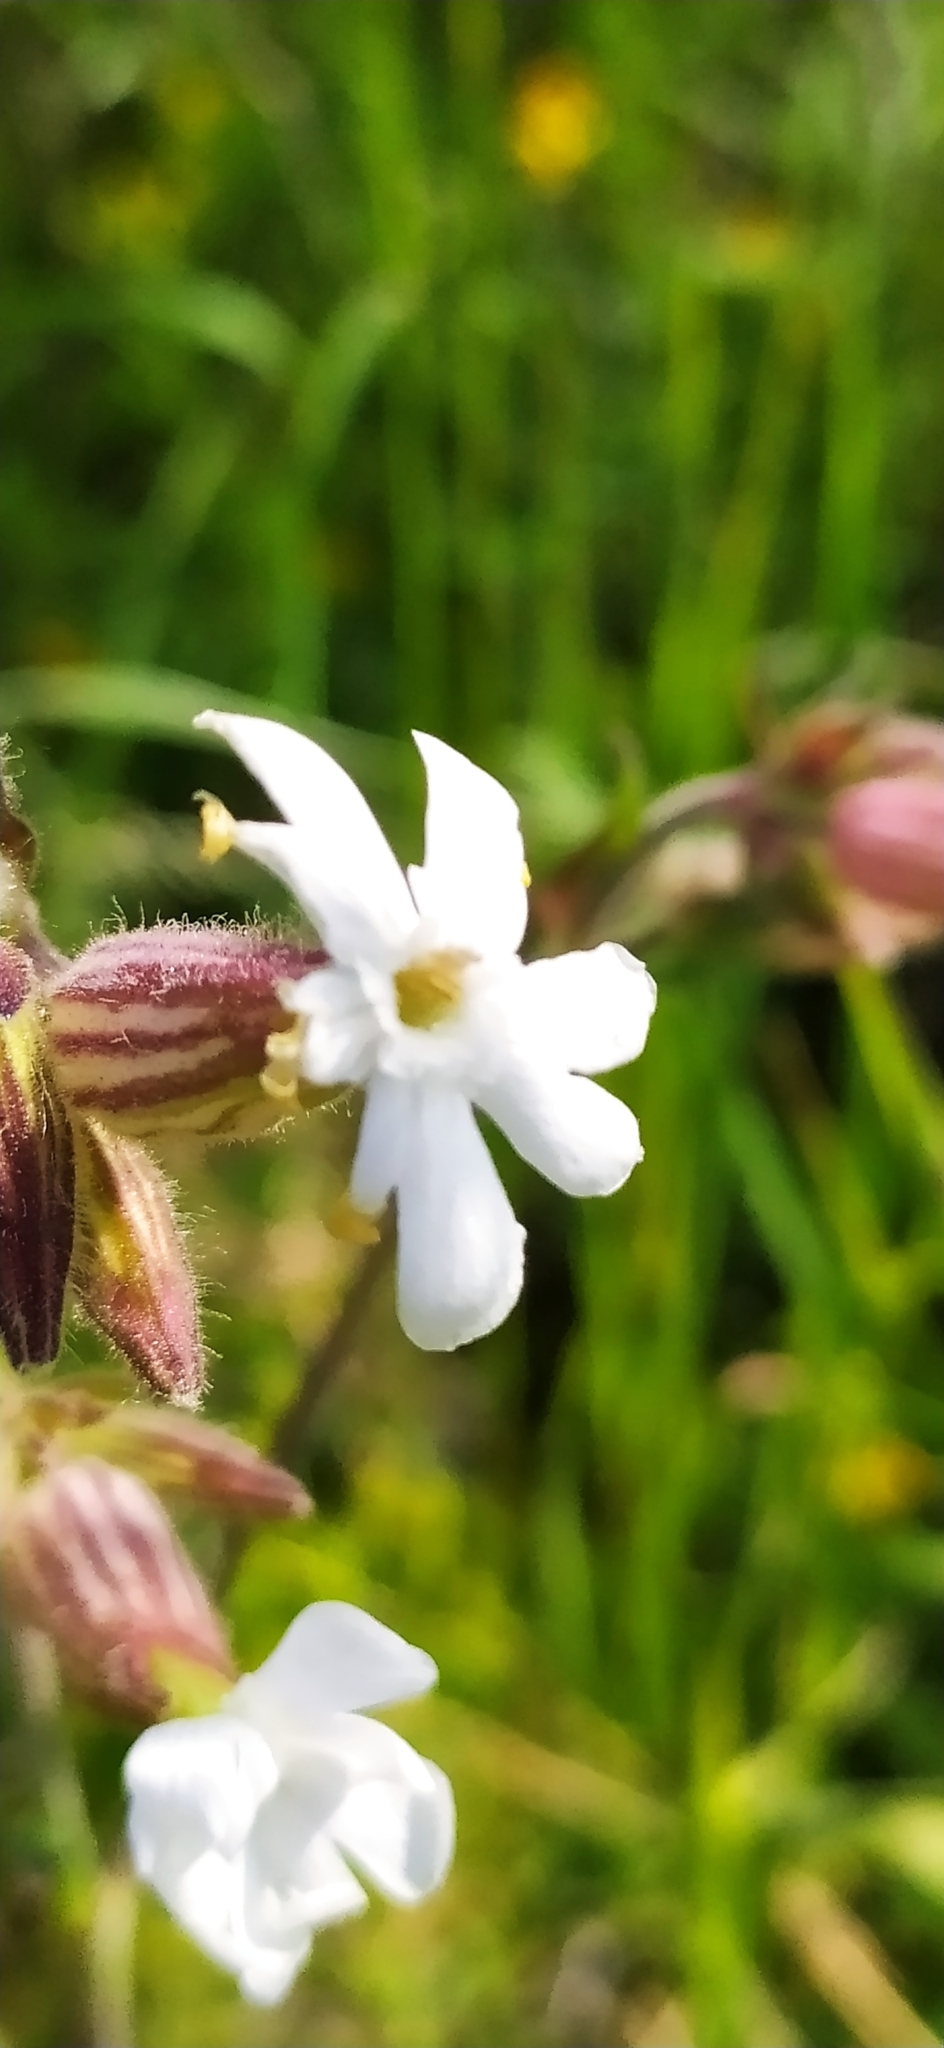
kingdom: Plantae
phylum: Tracheophyta
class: Magnoliopsida
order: Caryophyllales
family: Caryophyllaceae
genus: Silene
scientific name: Silene latifolia
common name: White campion
